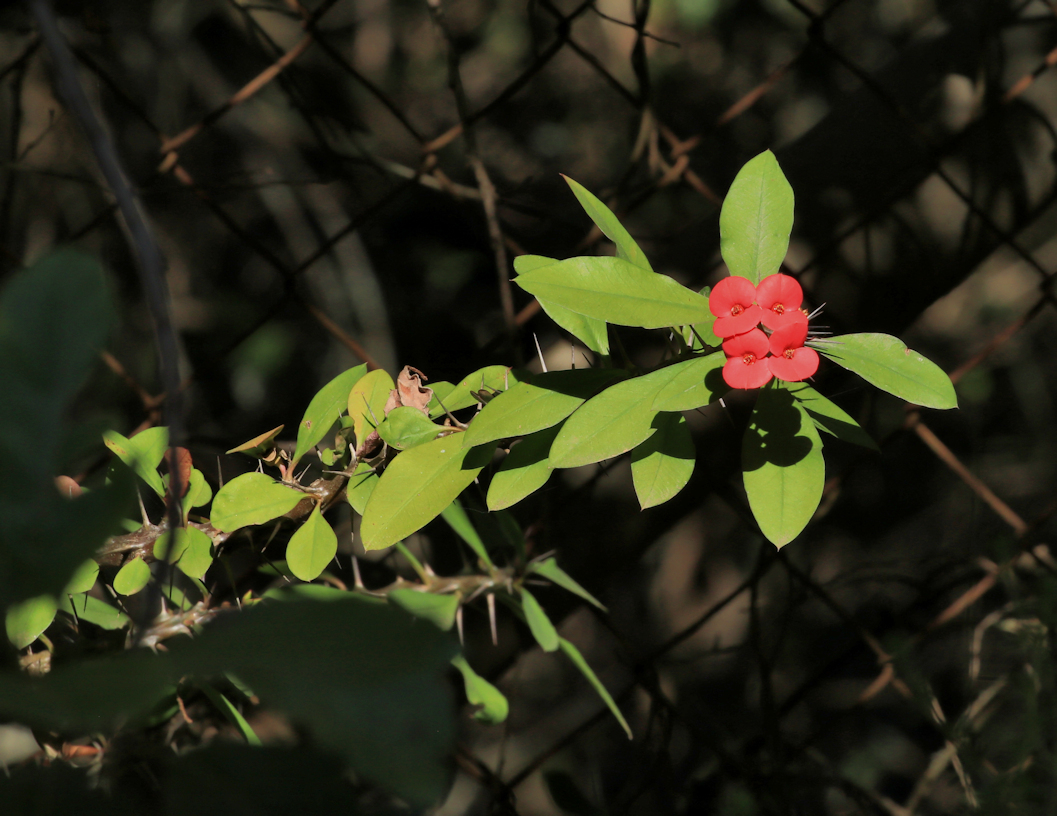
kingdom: Plantae
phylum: Tracheophyta
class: Magnoliopsida
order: Malpighiales
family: Euphorbiaceae
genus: Euphorbia
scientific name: Euphorbia milii
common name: Christplant
